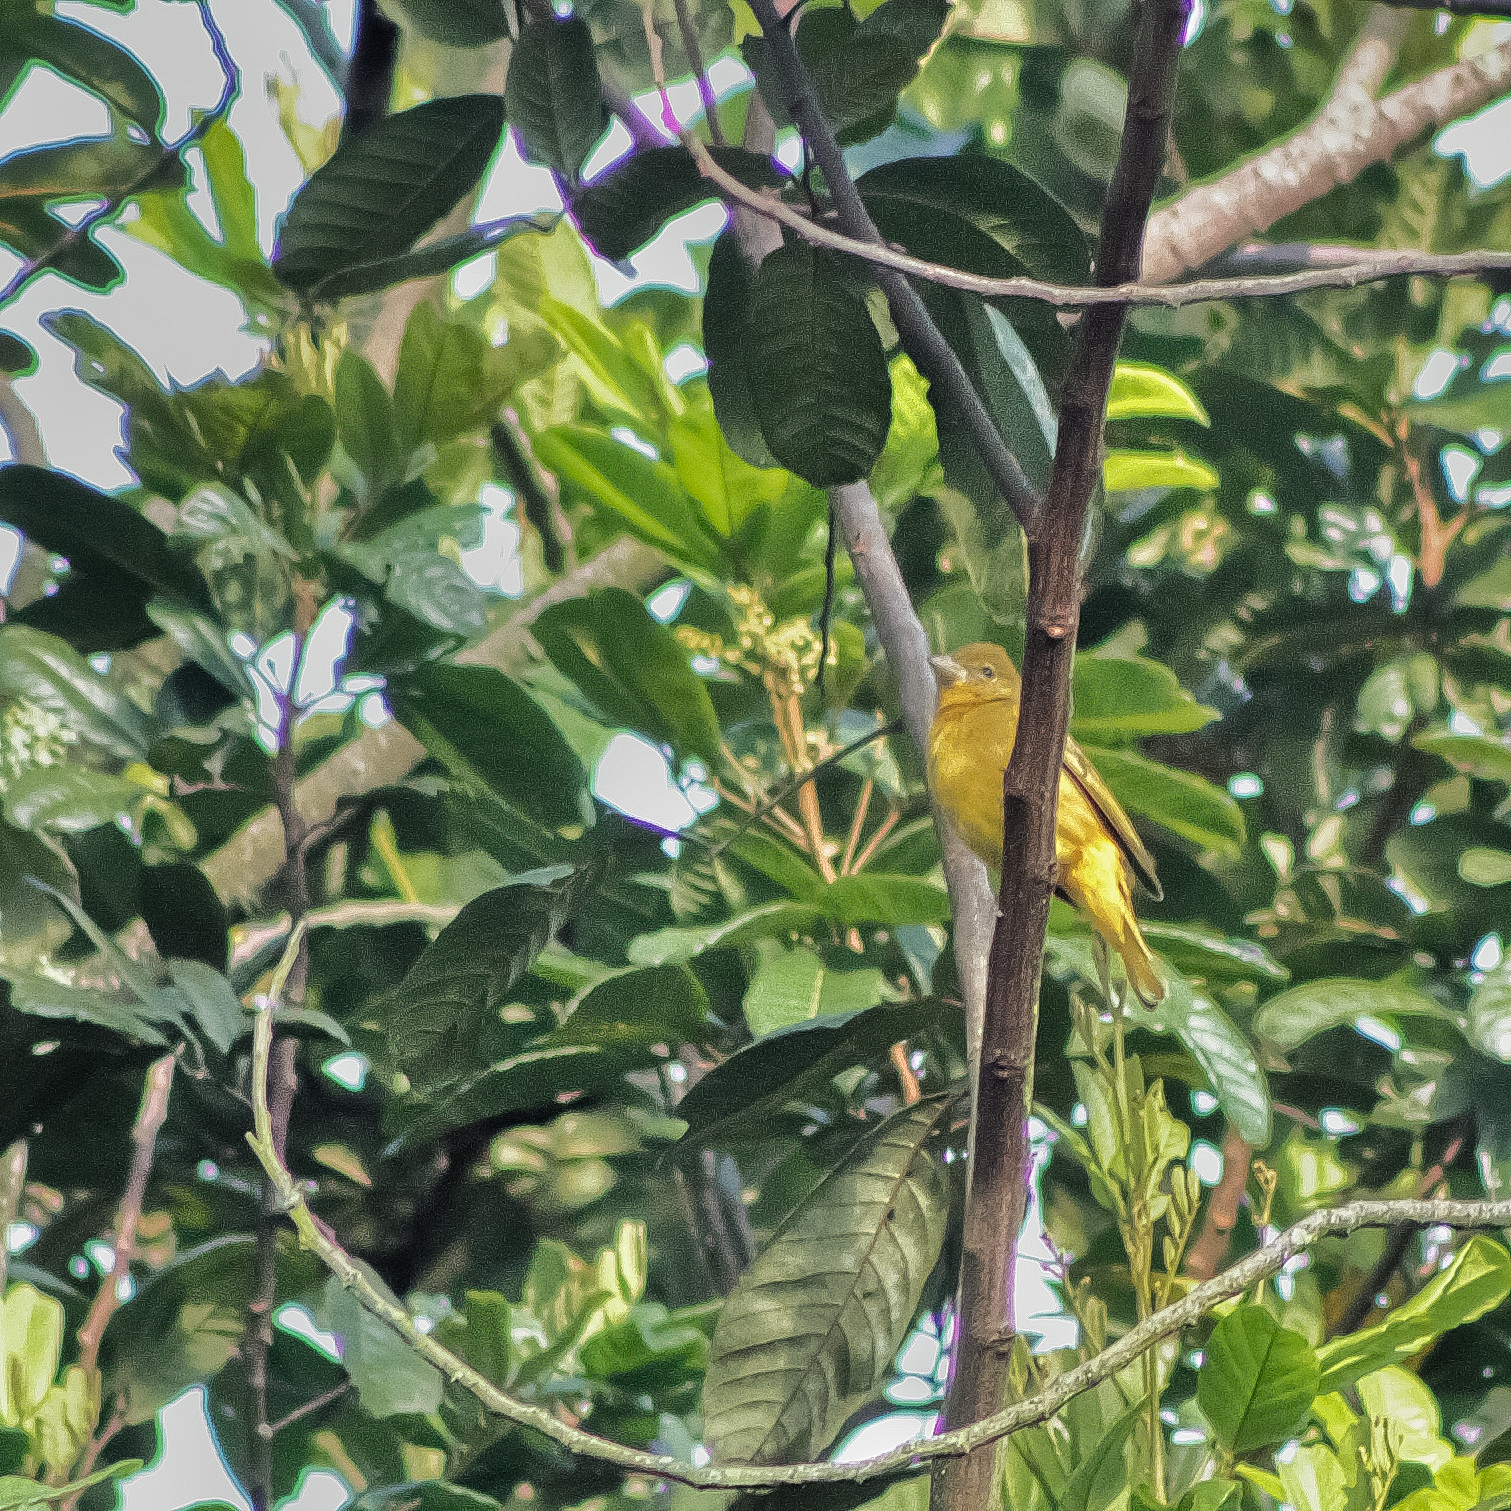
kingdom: Animalia
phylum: Chordata
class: Aves
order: Passeriformes
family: Cardinalidae
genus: Piranga
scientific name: Piranga rubra
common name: Summer tanager
